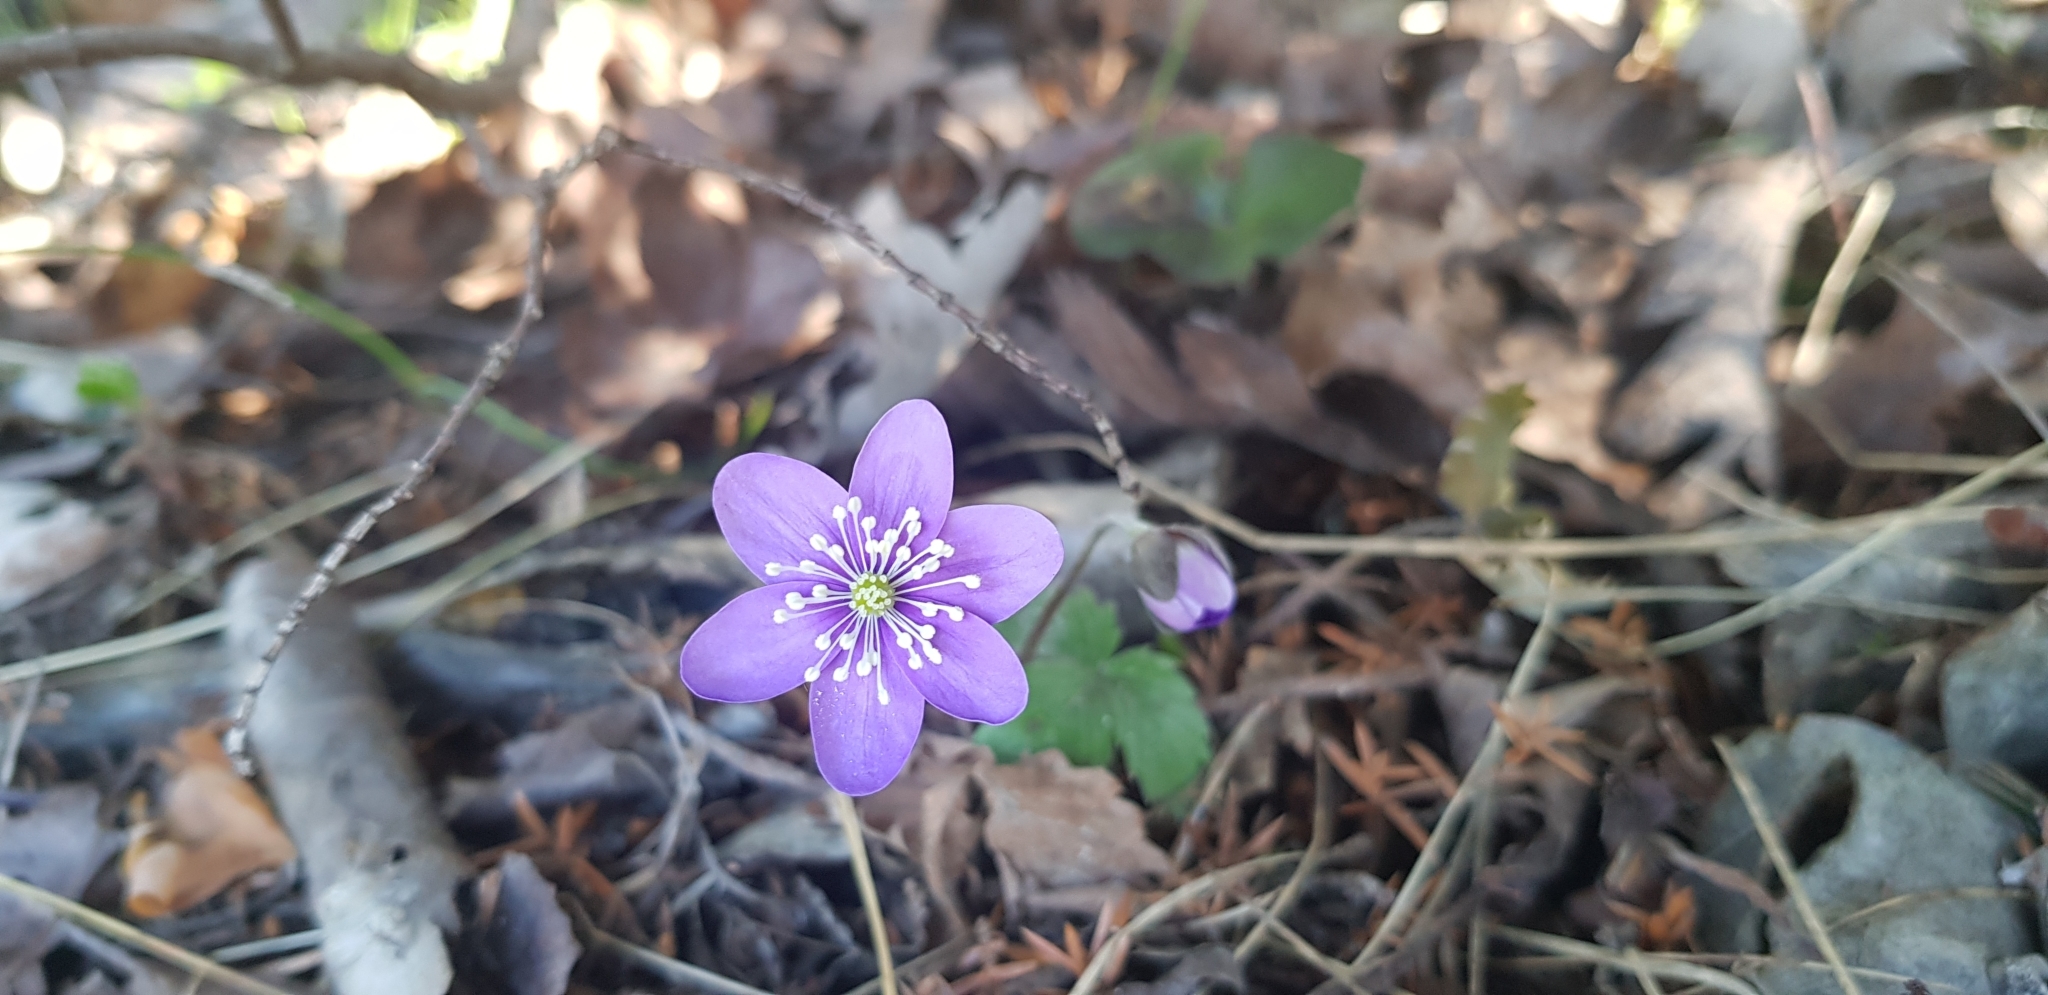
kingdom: Plantae
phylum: Tracheophyta
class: Magnoliopsida
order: Ranunculales
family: Ranunculaceae
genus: Hepatica
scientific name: Hepatica nobilis
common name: Liverleaf
